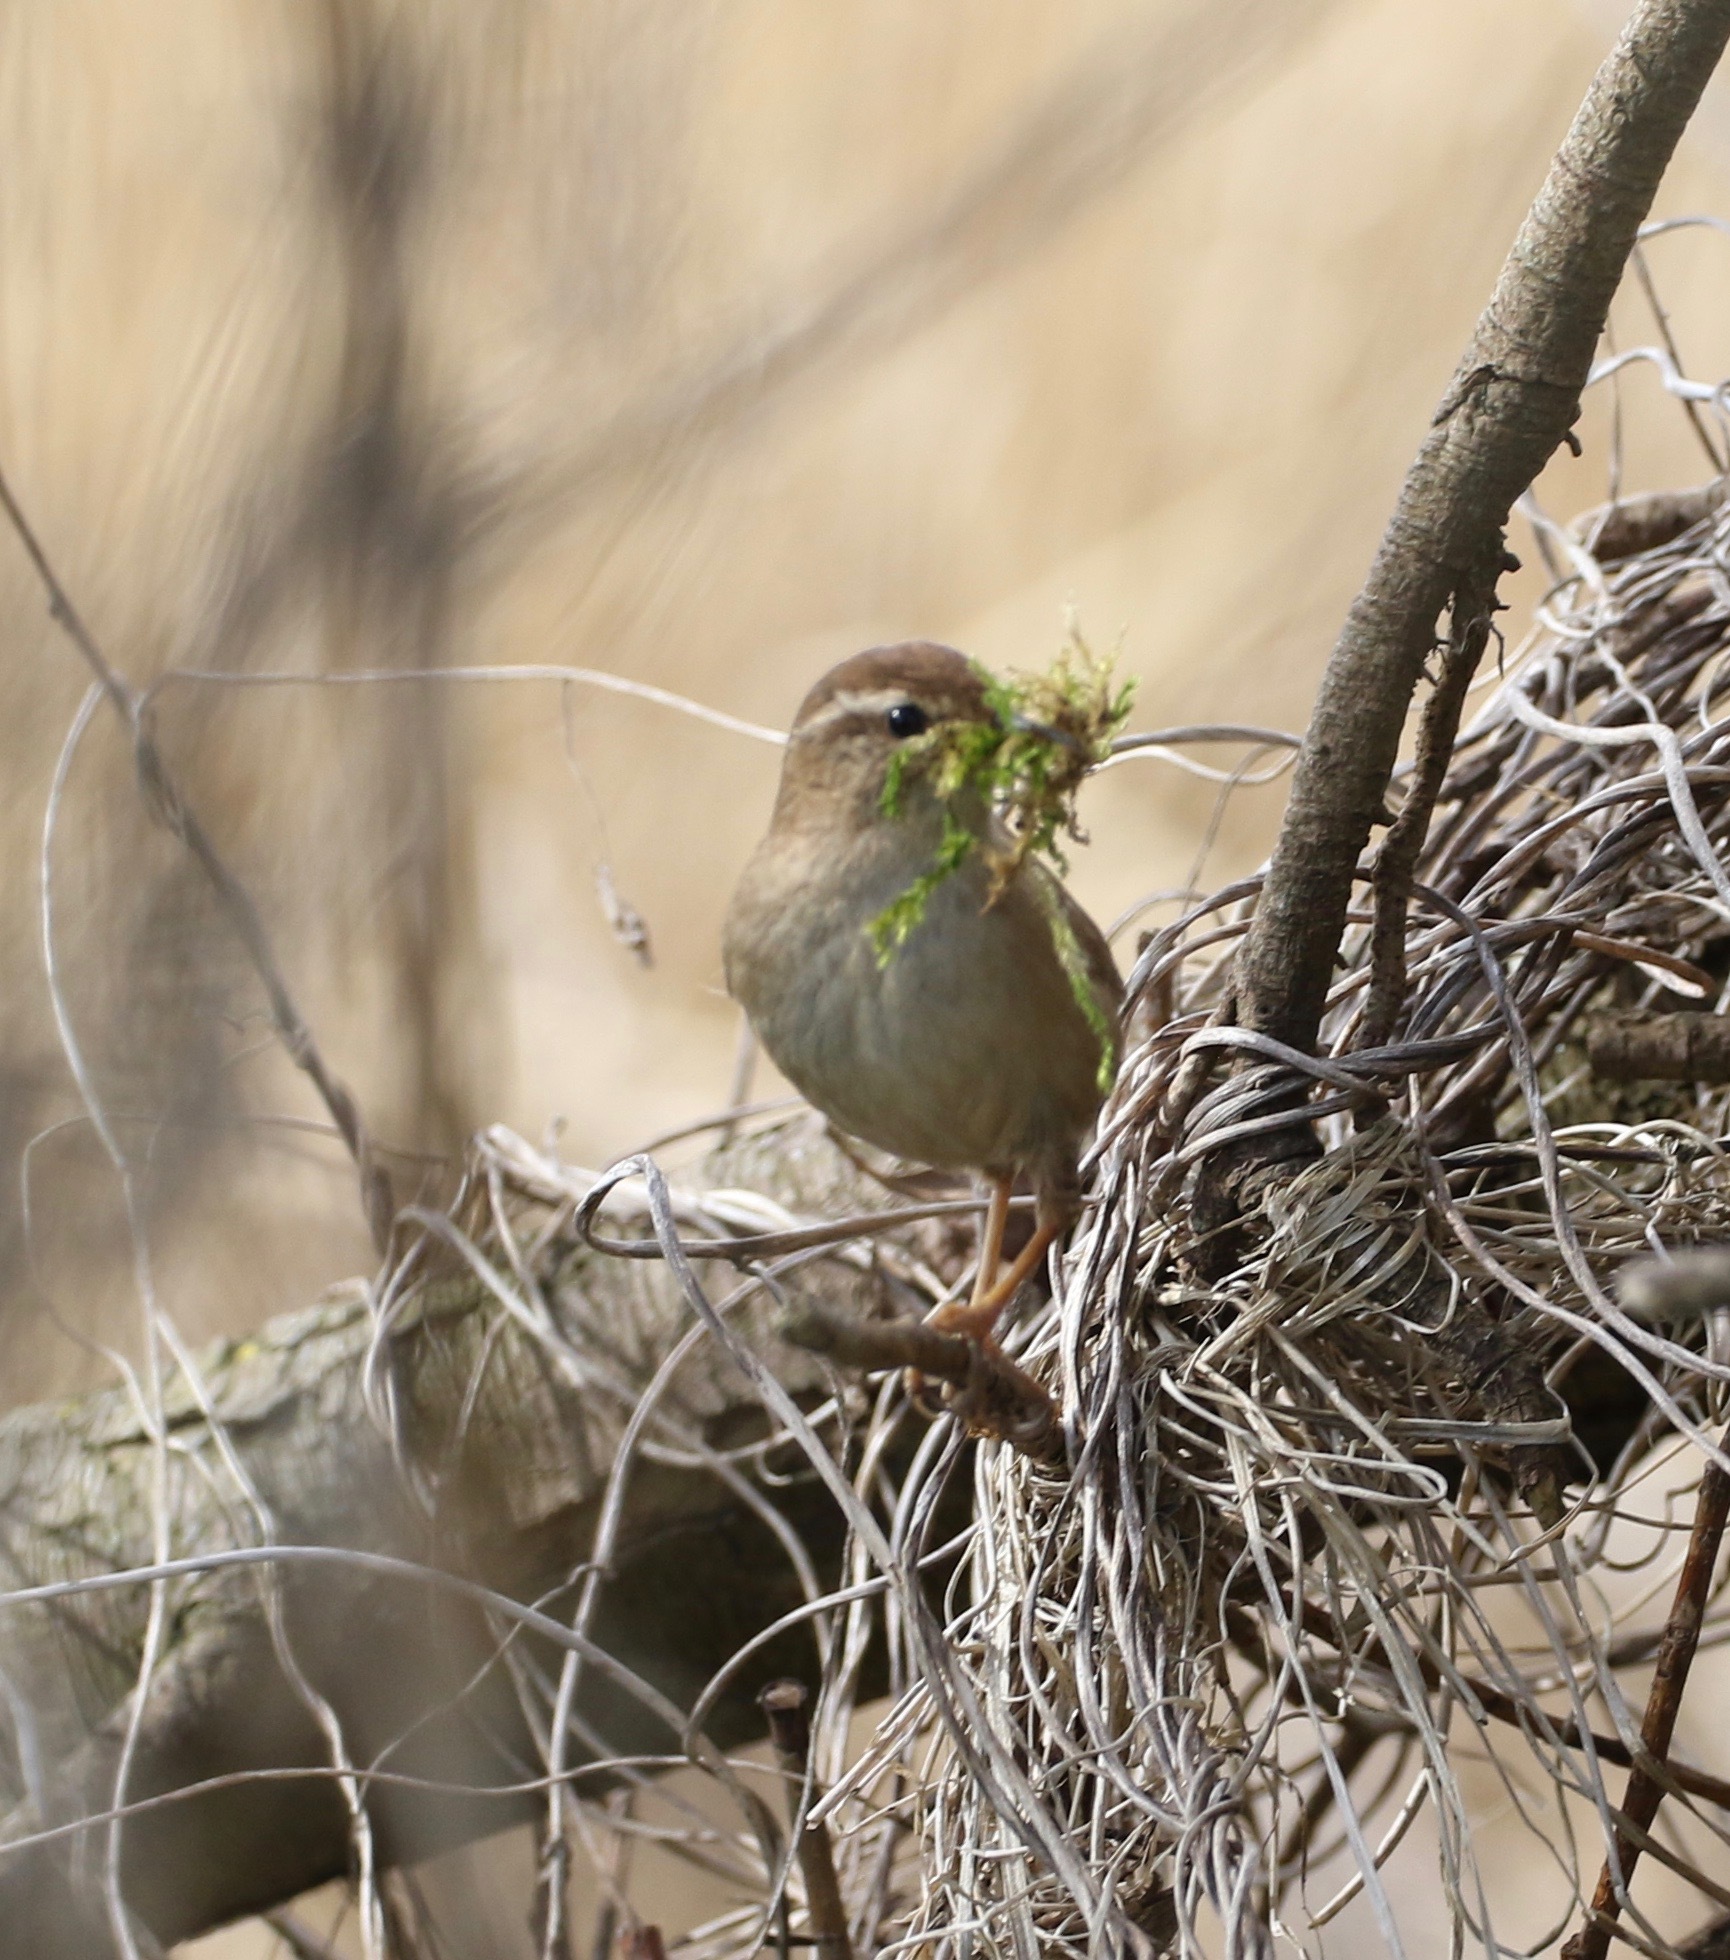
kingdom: Animalia
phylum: Chordata
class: Aves
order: Passeriformes
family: Troglodytidae
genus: Troglodytes
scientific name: Troglodytes troglodytes
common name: Eurasian wren
